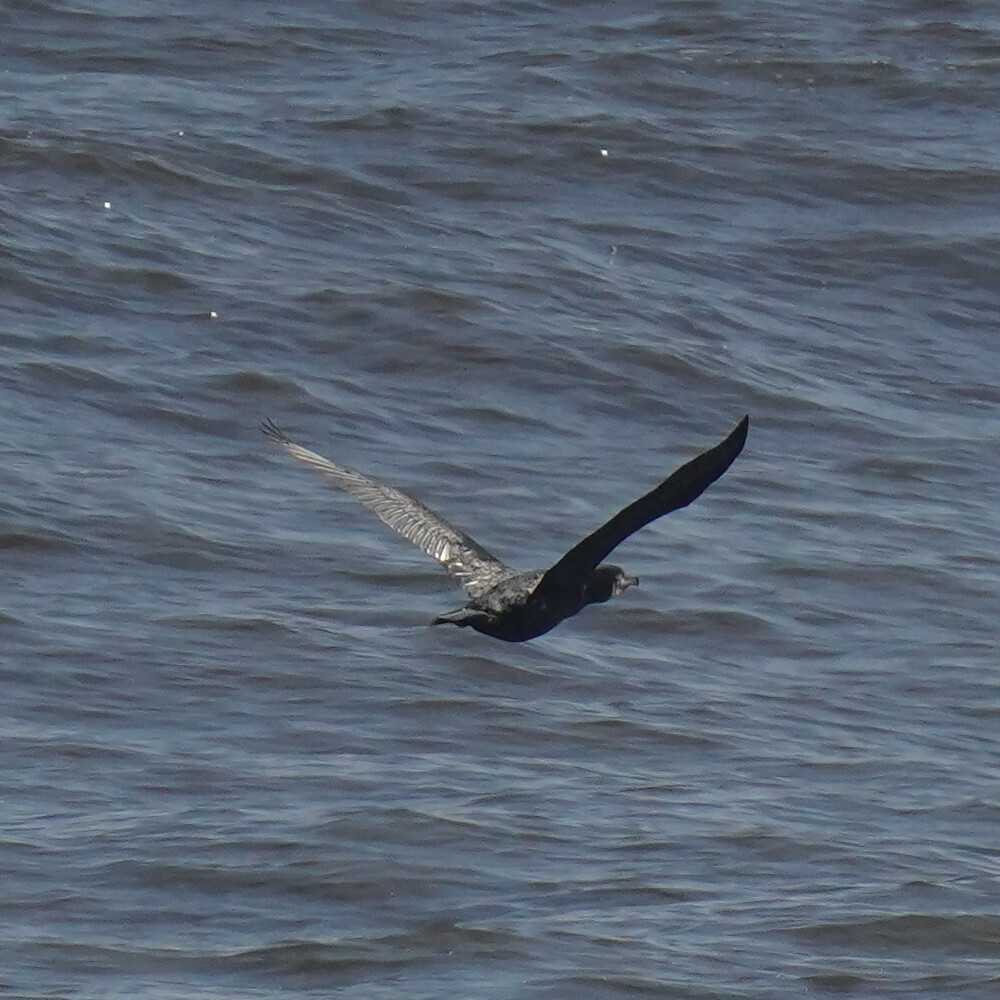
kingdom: Animalia
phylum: Chordata
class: Aves
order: Suliformes
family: Phalacrocoracidae
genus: Phalacrocorax
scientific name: Phalacrocorax carbo
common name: Great cormorant
